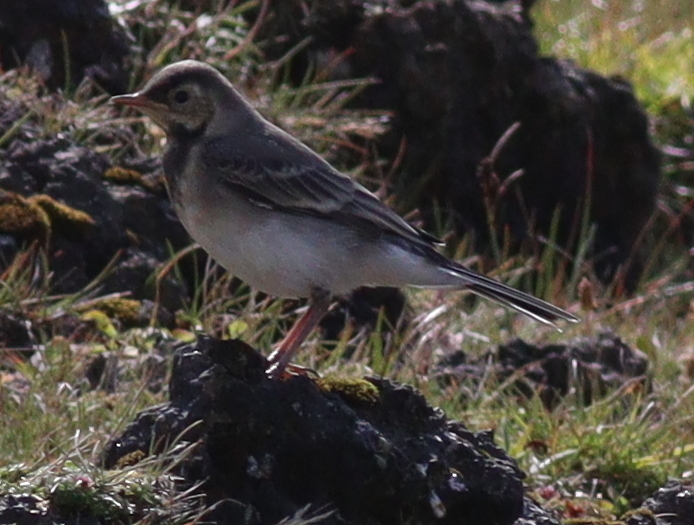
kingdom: Animalia
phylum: Chordata
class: Aves
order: Passeriformes
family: Motacillidae
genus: Motacilla
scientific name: Motacilla alba
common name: White wagtail
